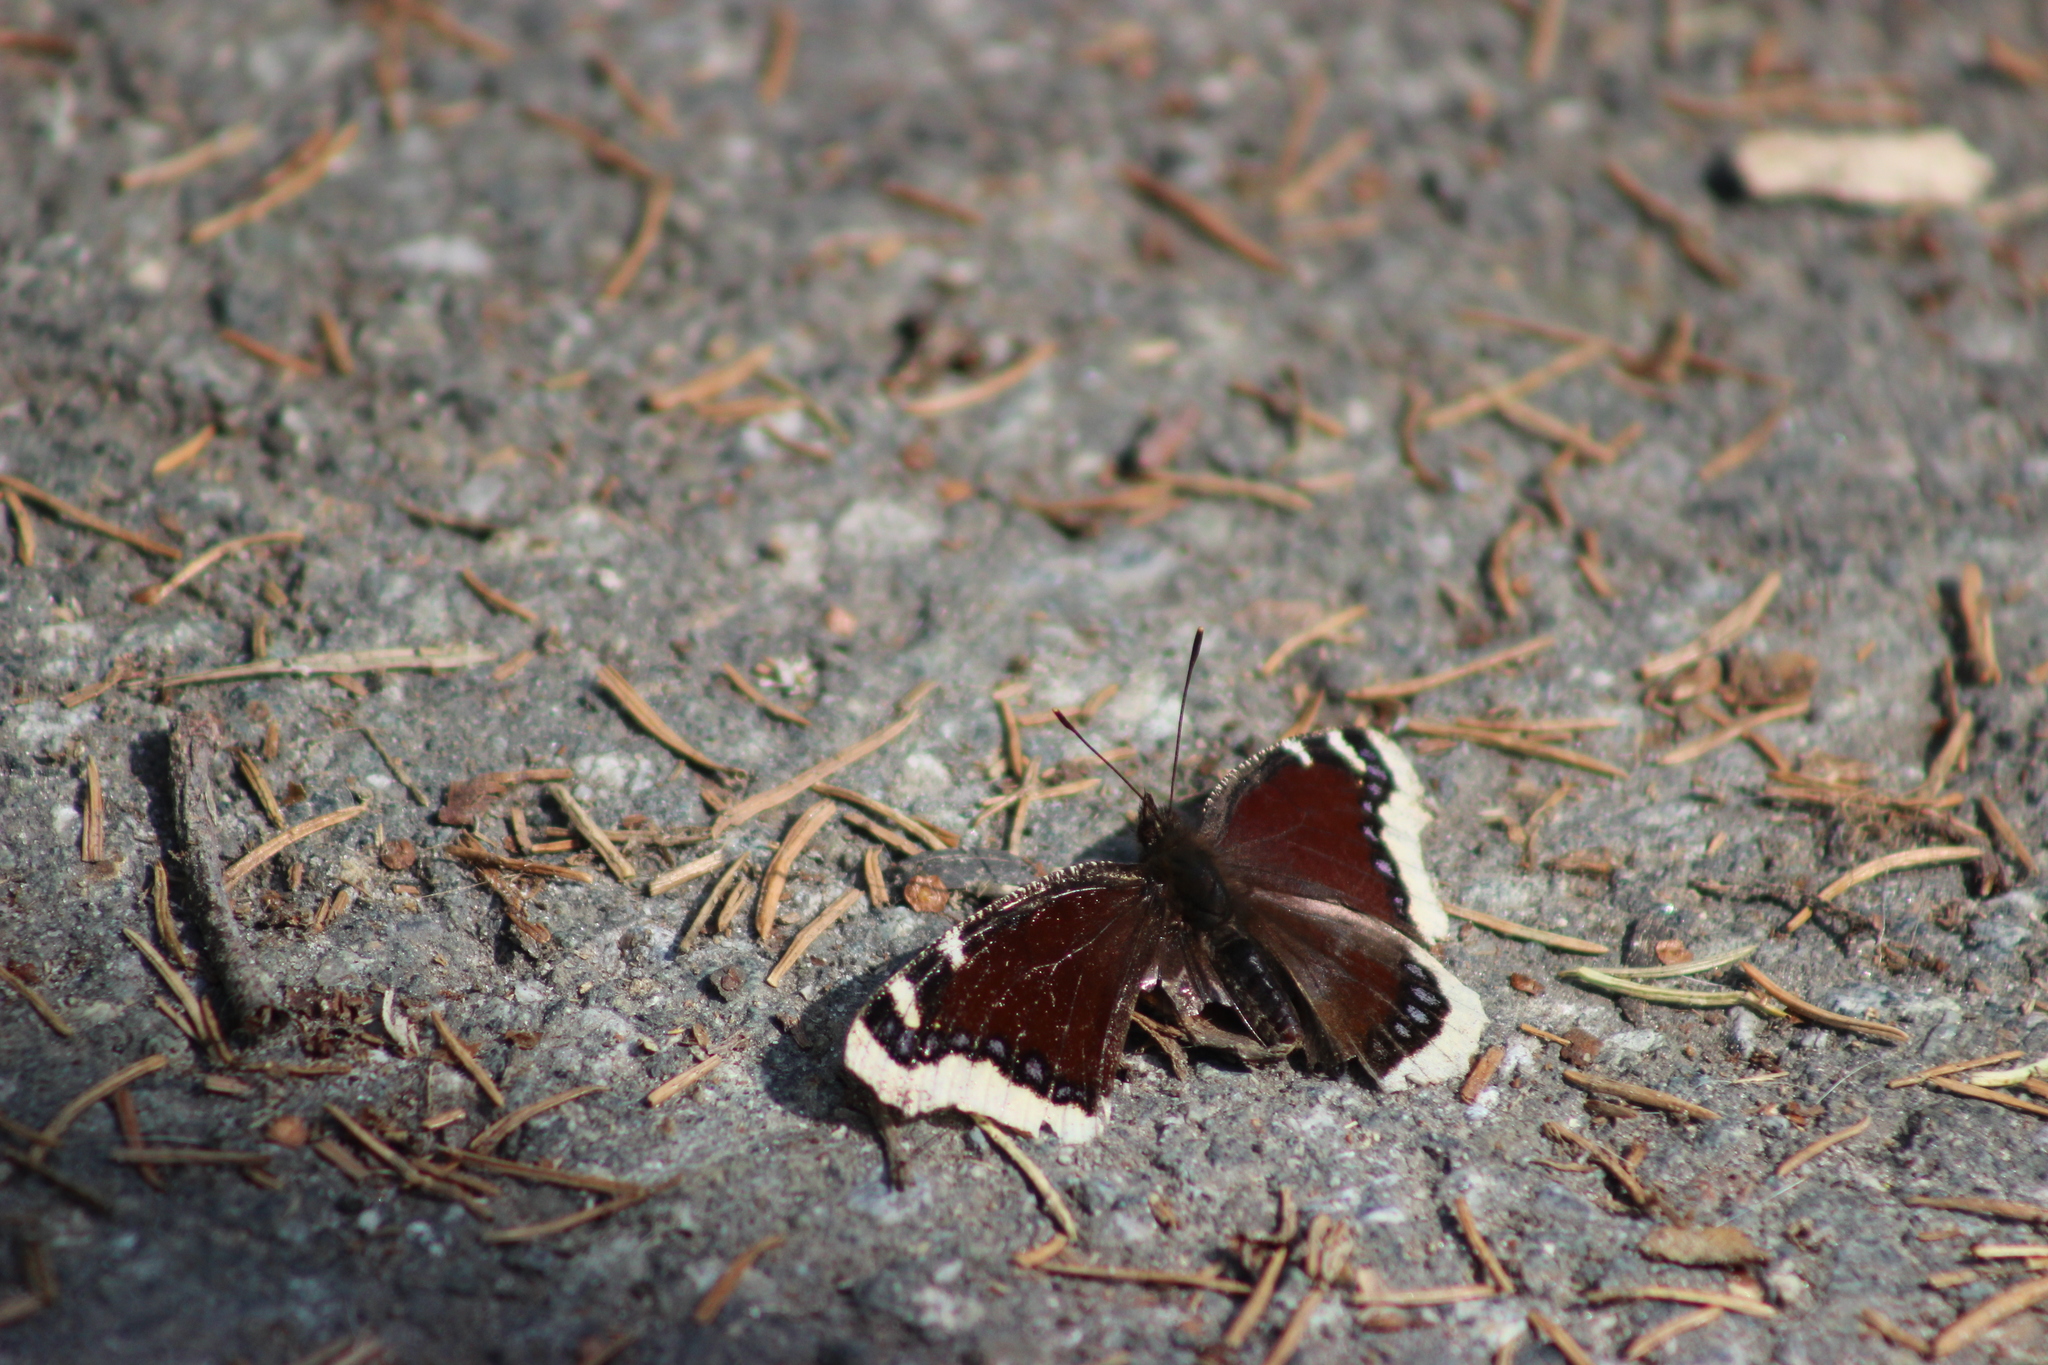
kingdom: Animalia
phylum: Arthropoda
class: Insecta
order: Lepidoptera
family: Nymphalidae
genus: Nymphalis
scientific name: Nymphalis antiopa
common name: Camberwell beauty
